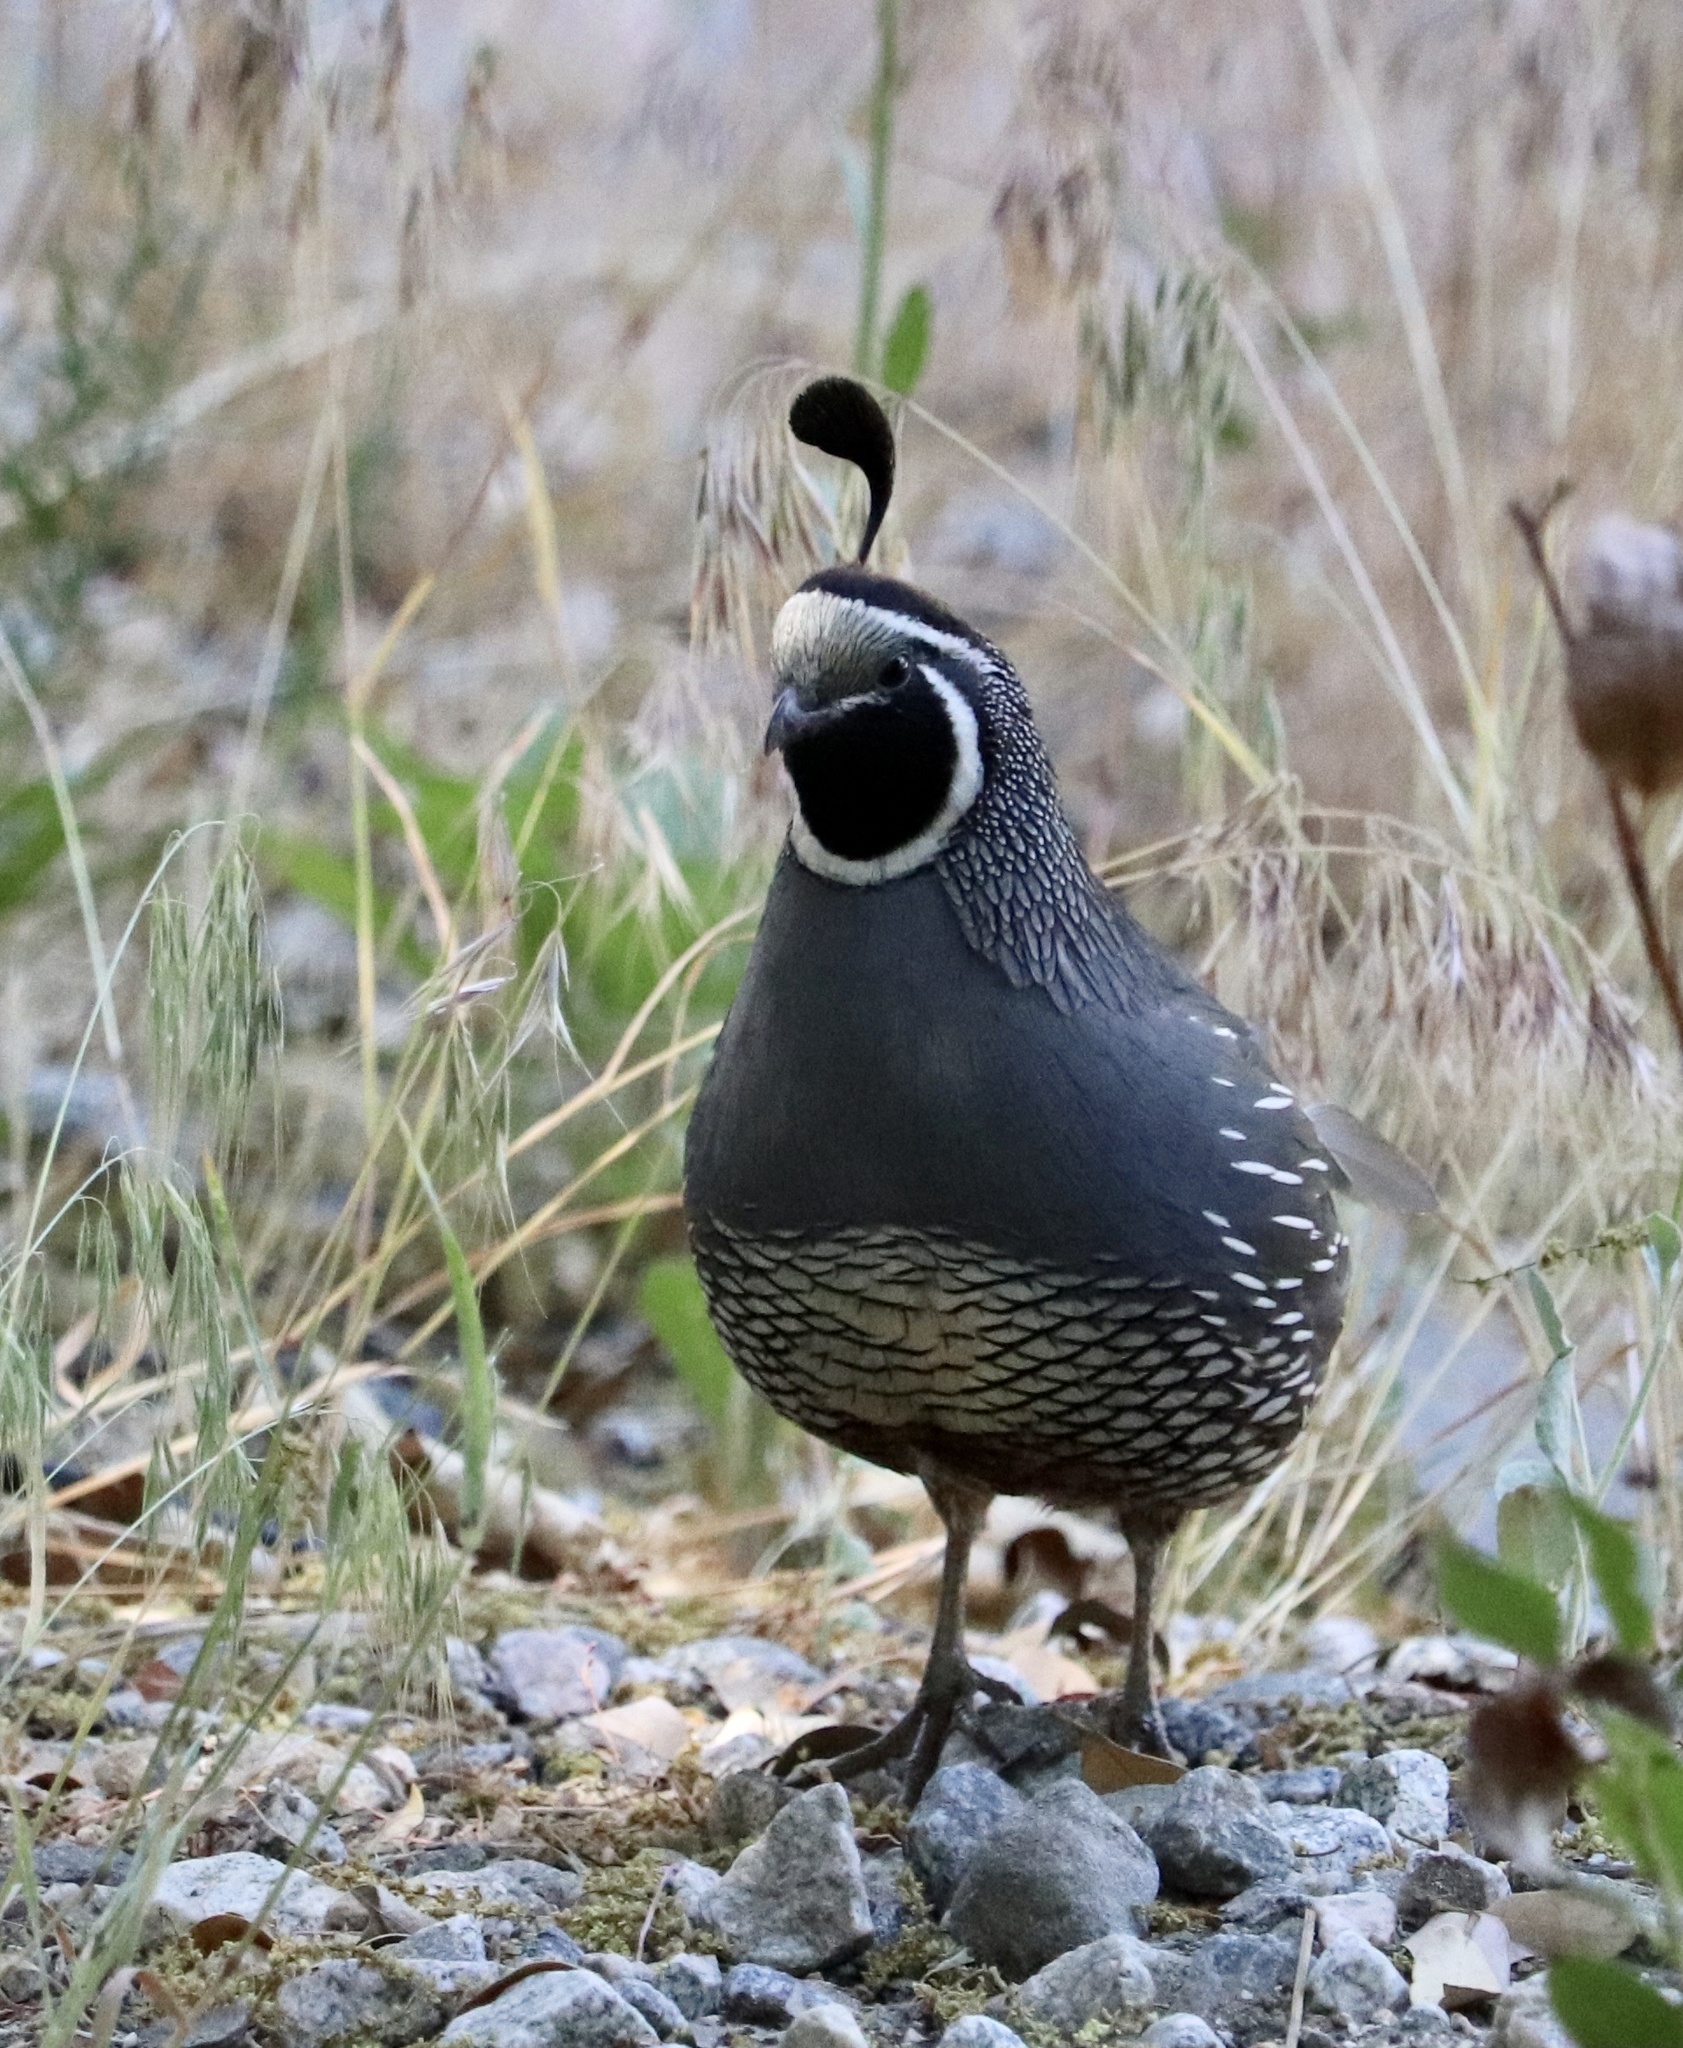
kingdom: Animalia
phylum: Chordata
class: Aves
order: Galliformes
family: Odontophoridae
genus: Callipepla
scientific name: Callipepla californica
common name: California quail
